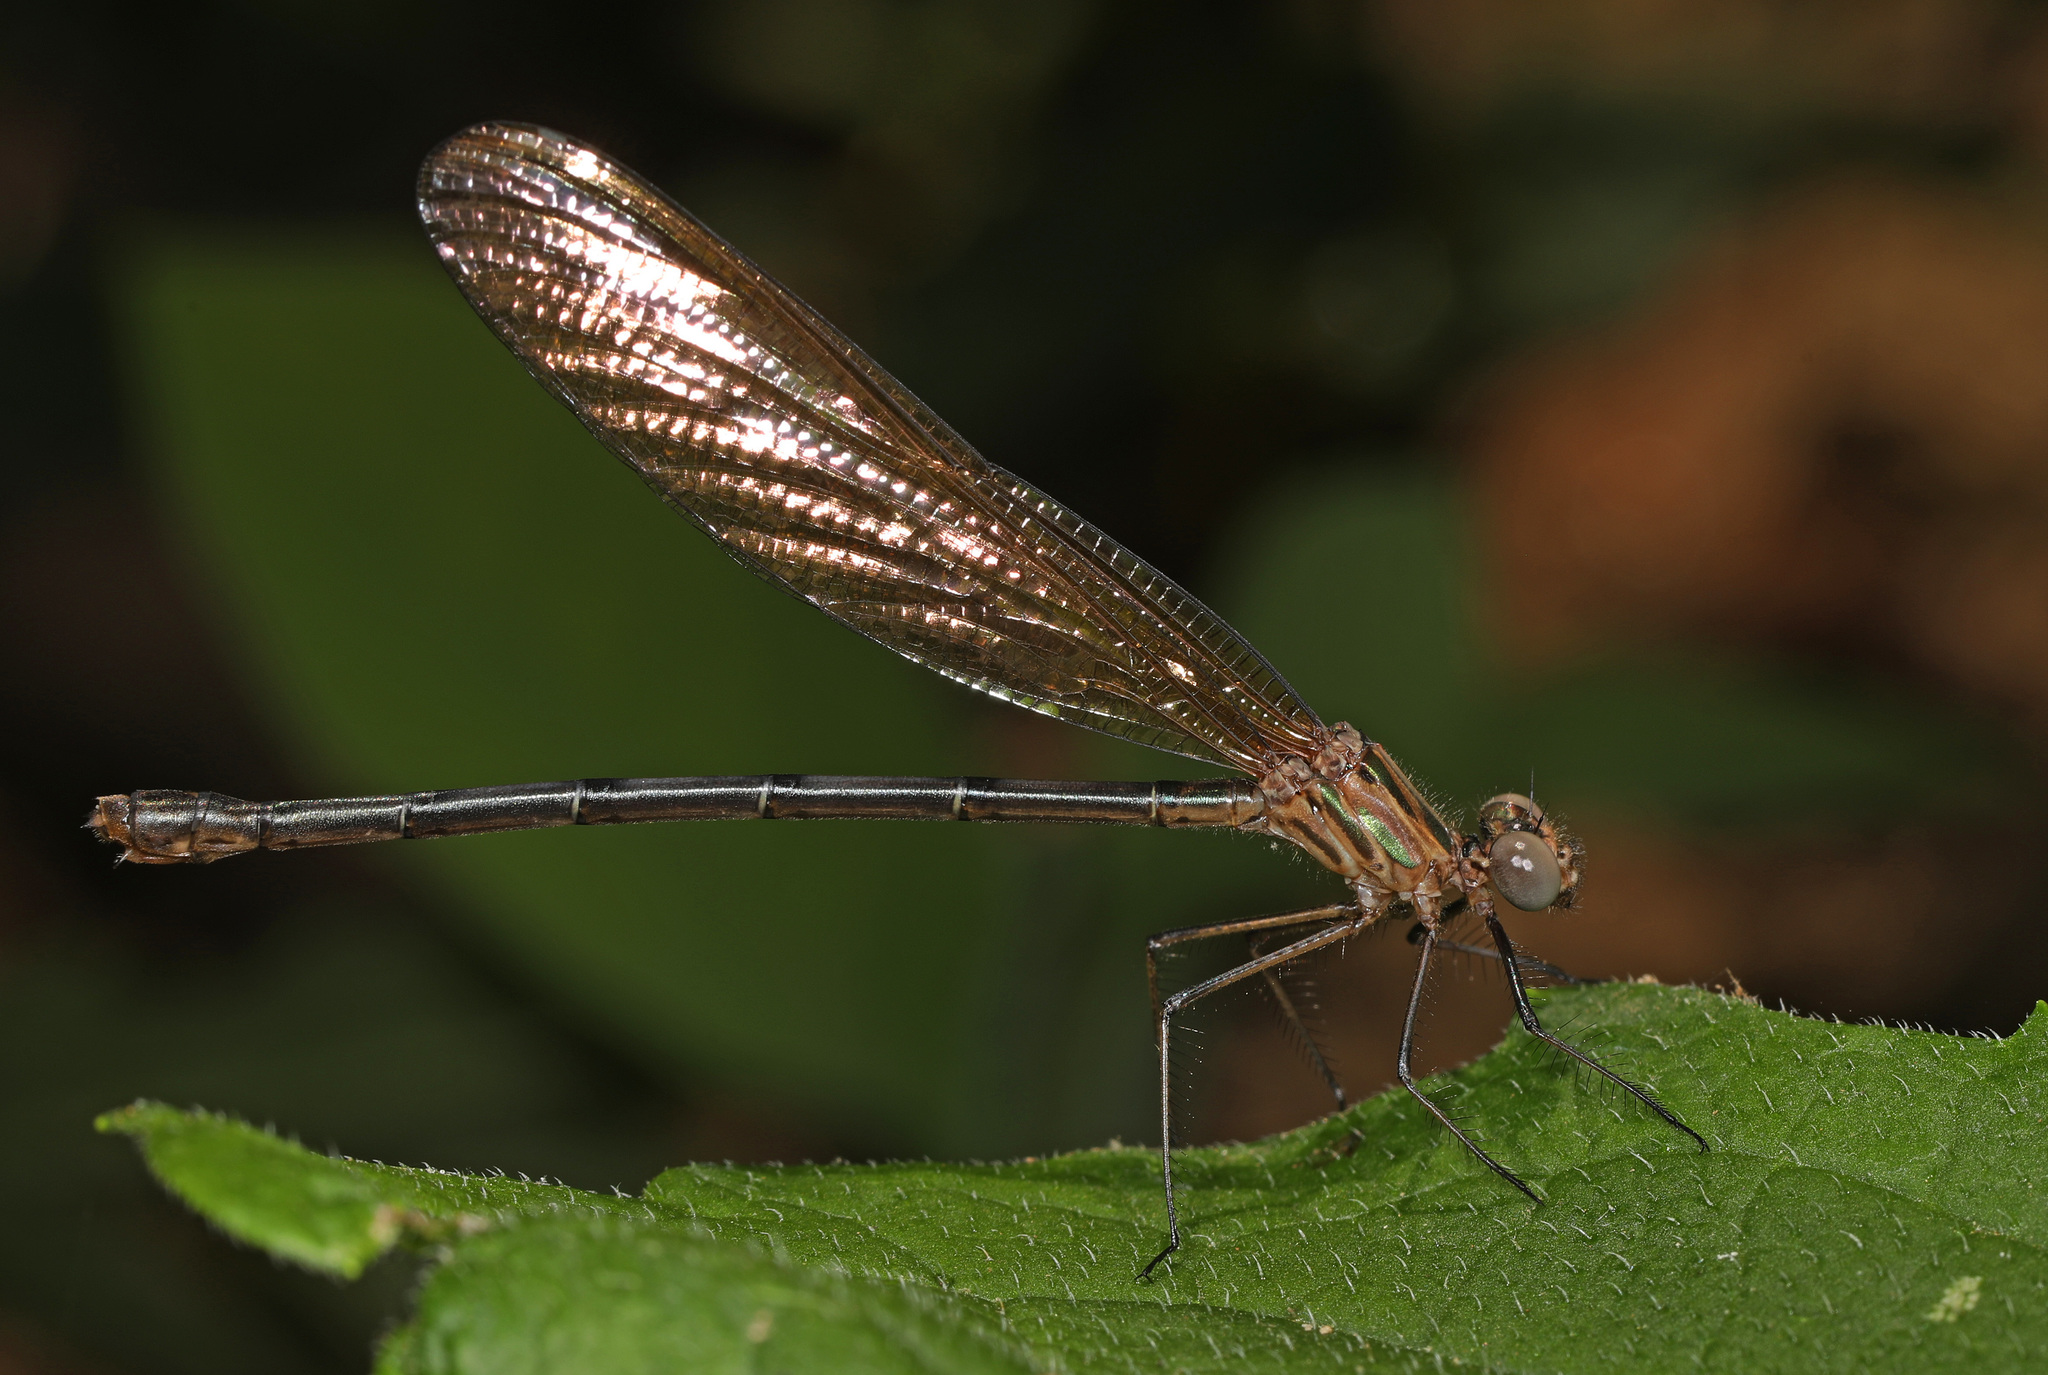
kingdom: Animalia
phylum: Arthropoda
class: Insecta
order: Odonata
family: Calopterygidae
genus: Hetaerina
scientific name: Hetaerina titia
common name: Smoky rubyspot
